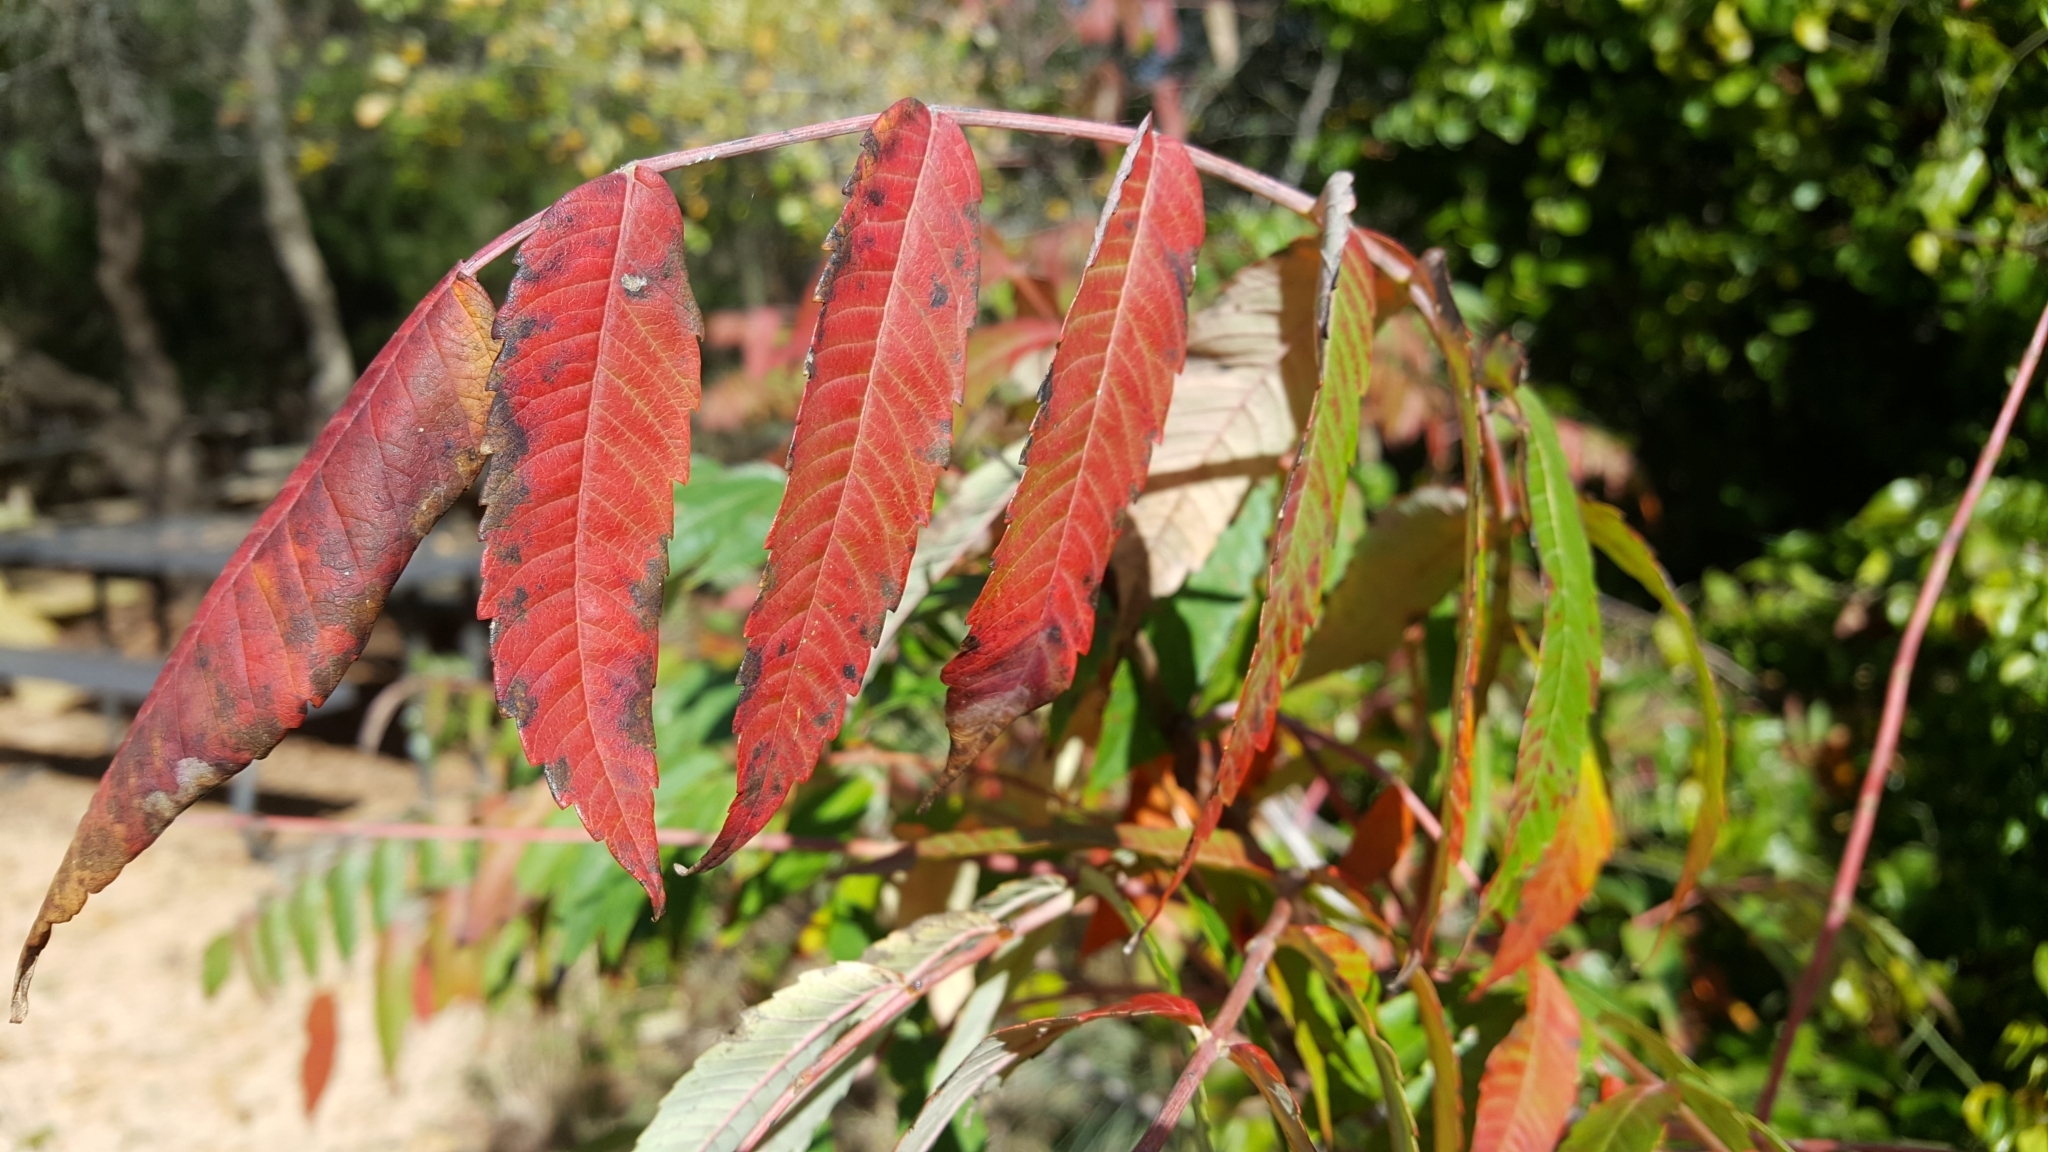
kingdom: Plantae
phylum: Tracheophyta
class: Magnoliopsida
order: Sapindales
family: Anacardiaceae
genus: Rhus
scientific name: Rhus glabra
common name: Scarlet sumac
